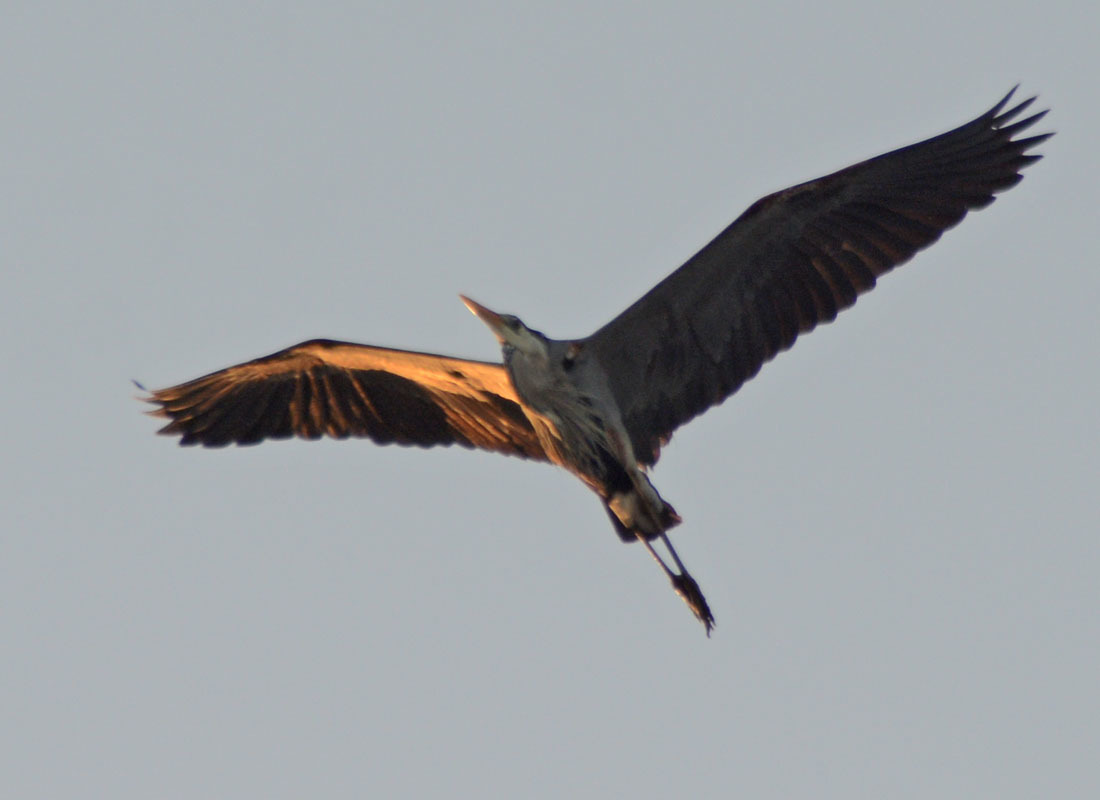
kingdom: Animalia
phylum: Chordata
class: Aves
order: Pelecaniformes
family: Ardeidae
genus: Ardea
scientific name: Ardea herodias
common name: Great blue heron
